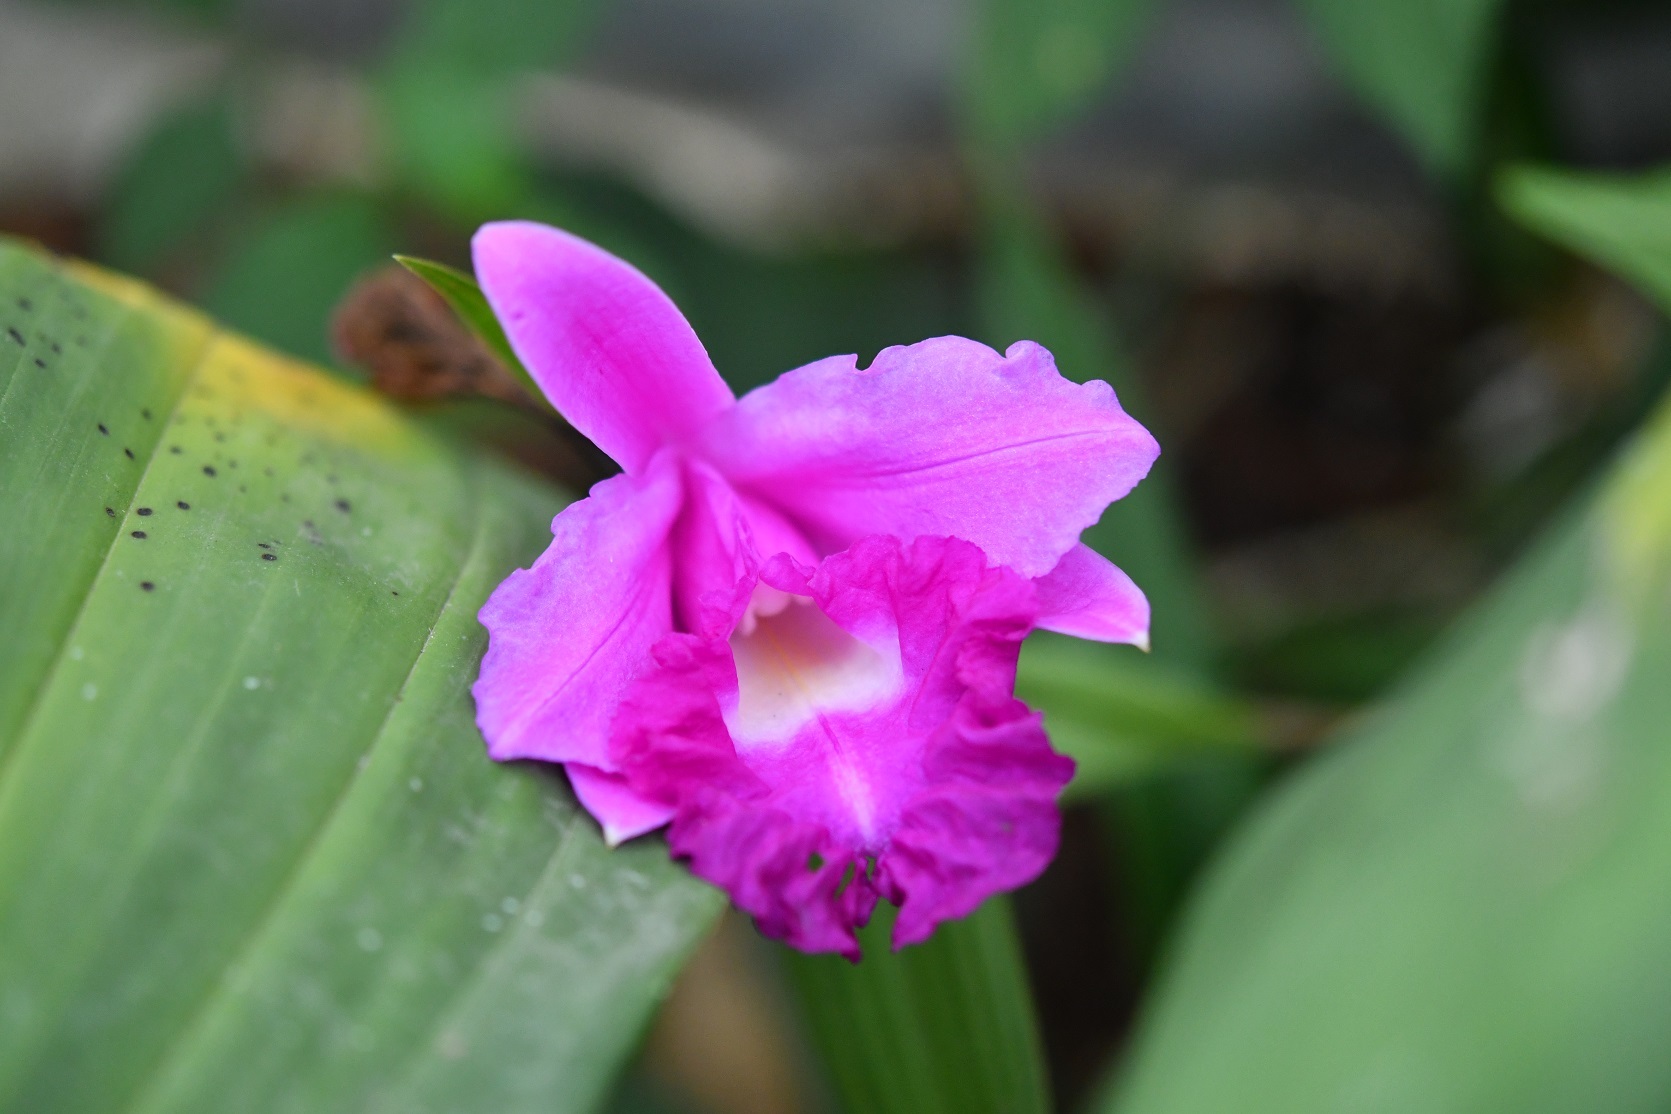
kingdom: Plantae
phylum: Tracheophyta
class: Liliopsida
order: Asparagales
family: Orchidaceae
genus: Sobralia
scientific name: Sobralia macrantha
